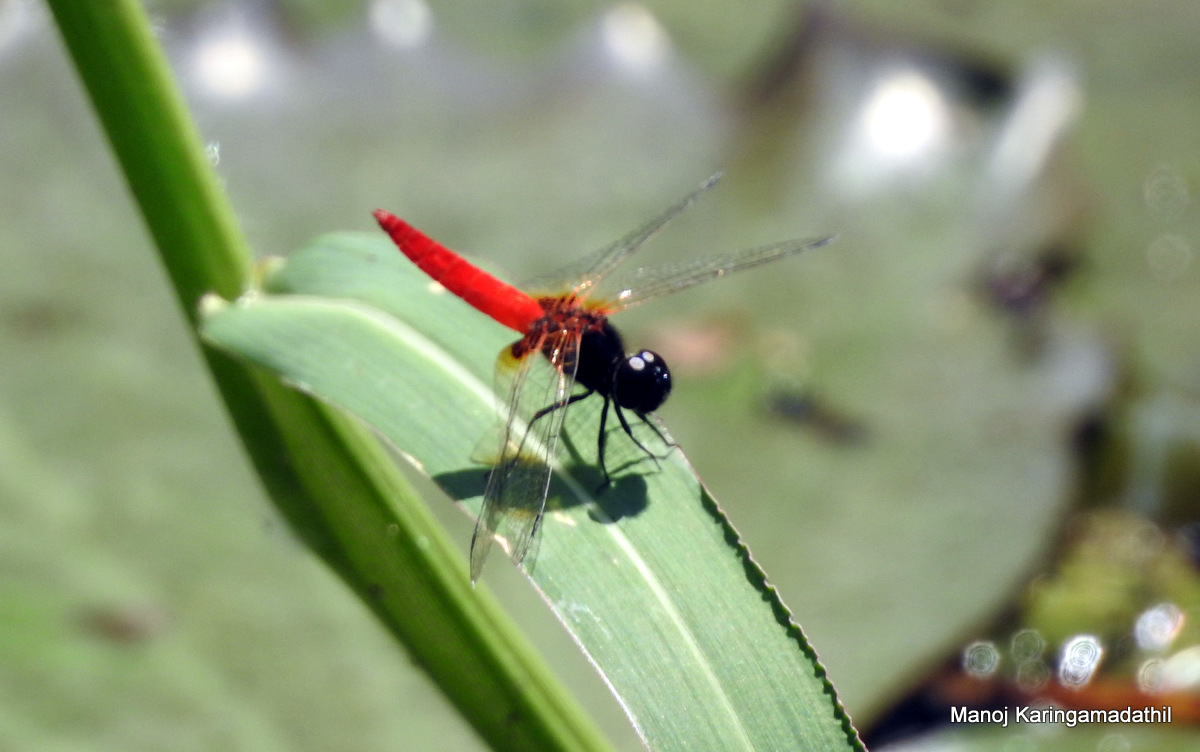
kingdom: Animalia
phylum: Arthropoda
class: Insecta
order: Odonata
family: Libellulidae
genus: Aethriamanta
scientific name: Aethriamanta brevipennis
